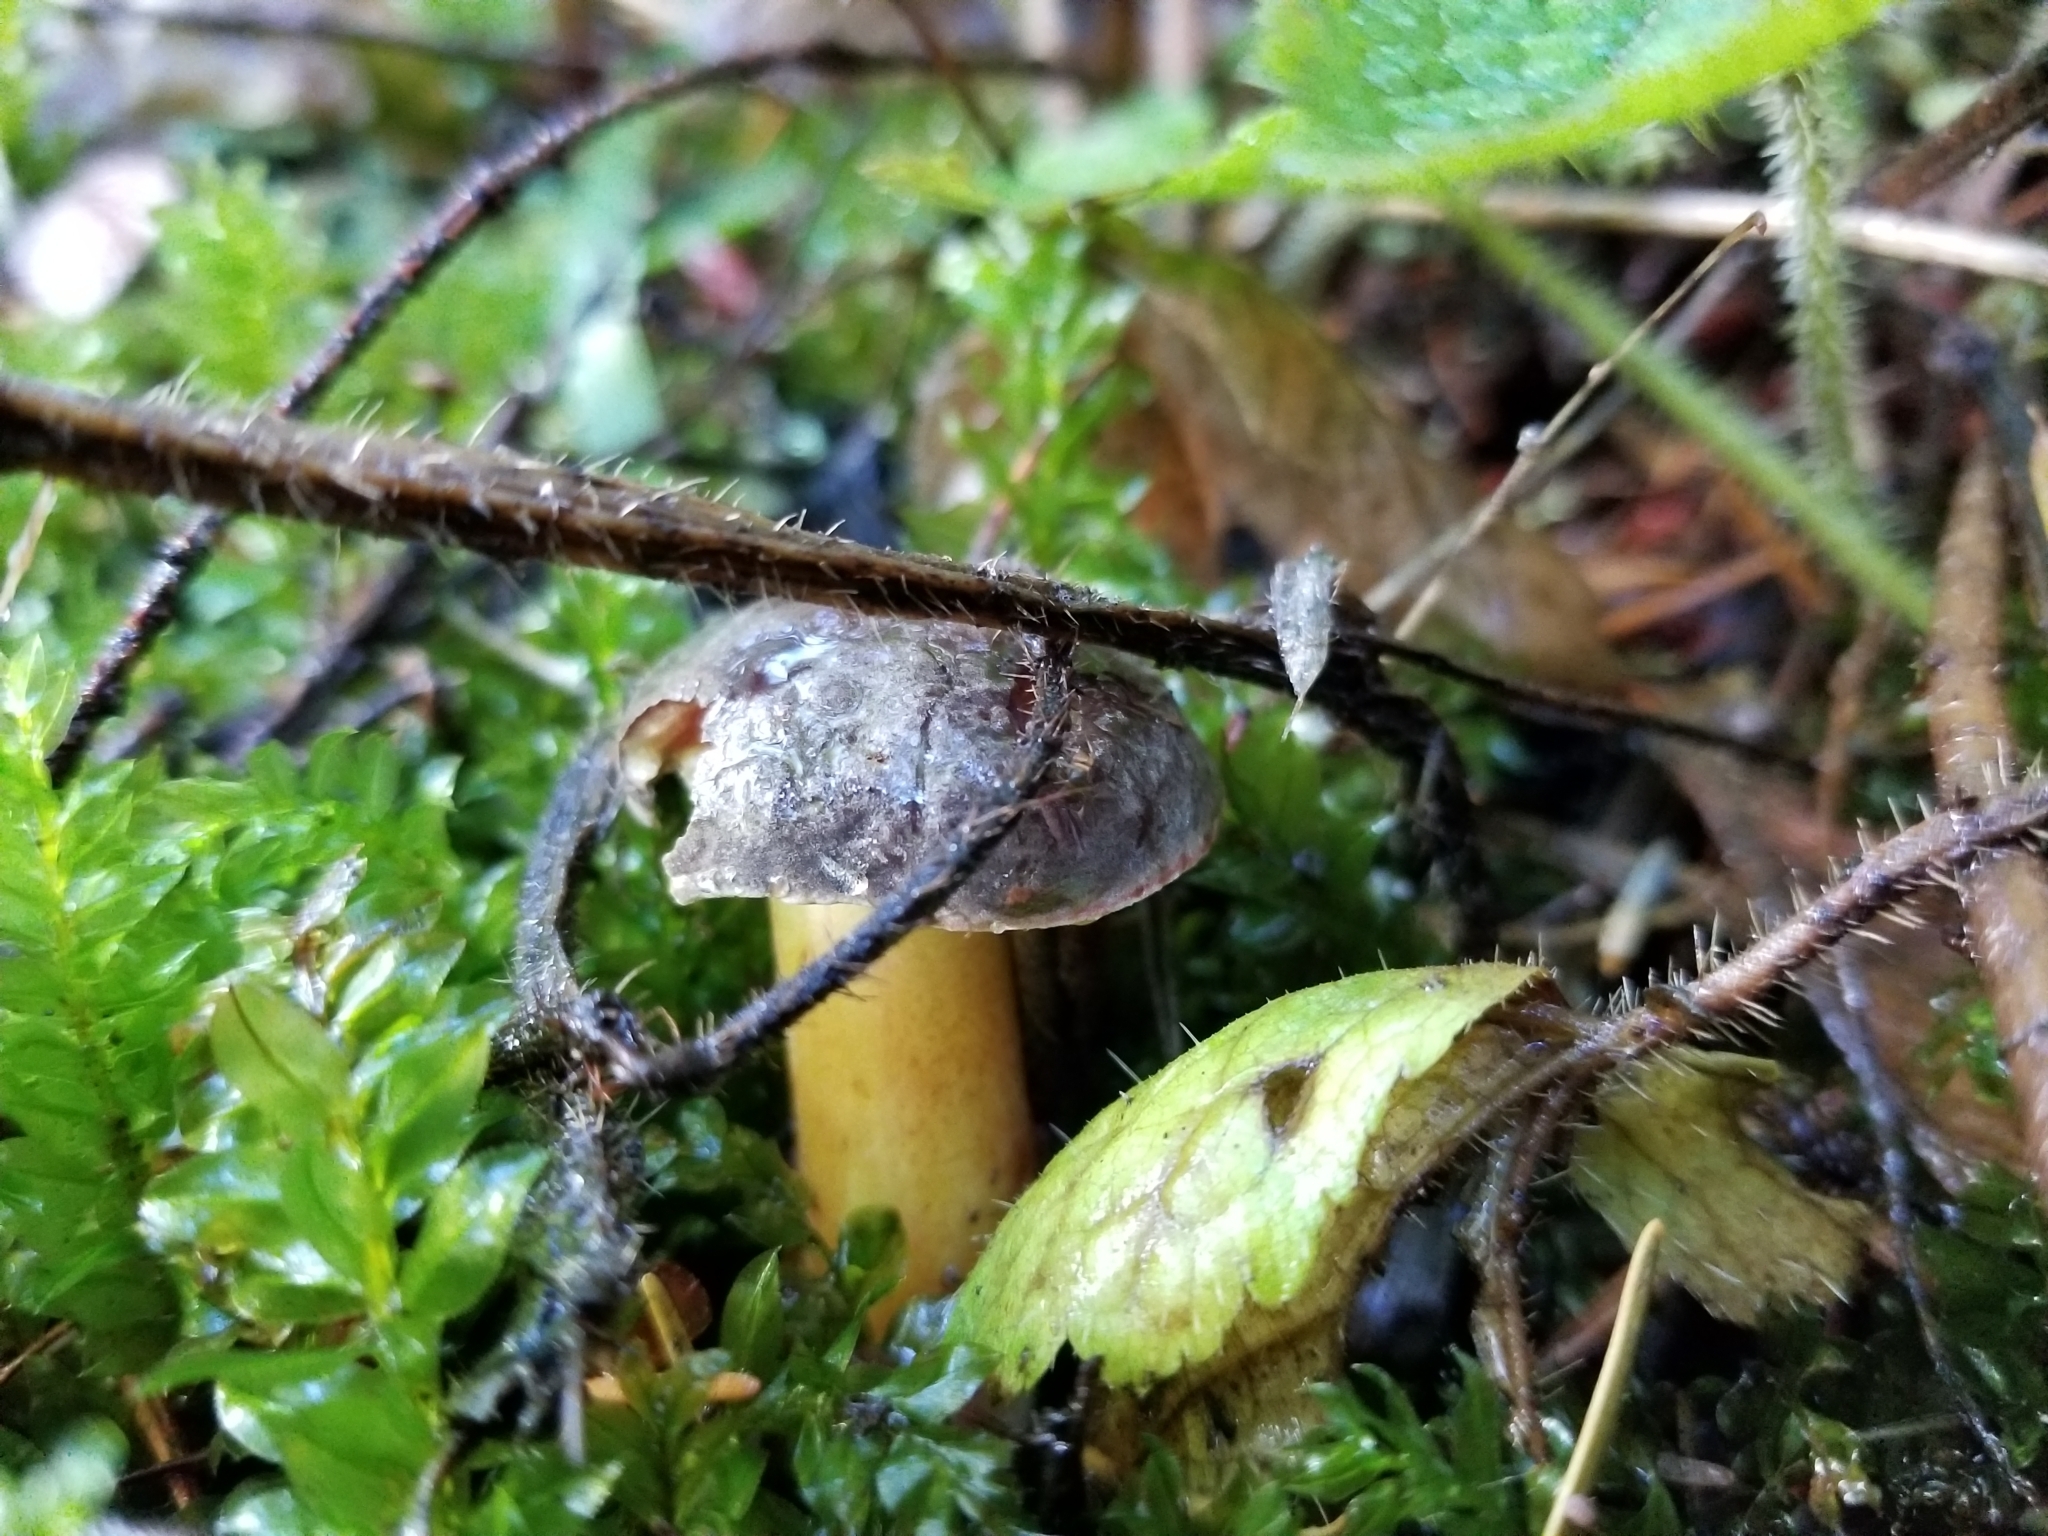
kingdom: Fungi
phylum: Basidiomycota
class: Agaricomycetes
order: Boletales
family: Boletaceae
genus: Xerocomellus
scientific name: Xerocomellus diffractus
